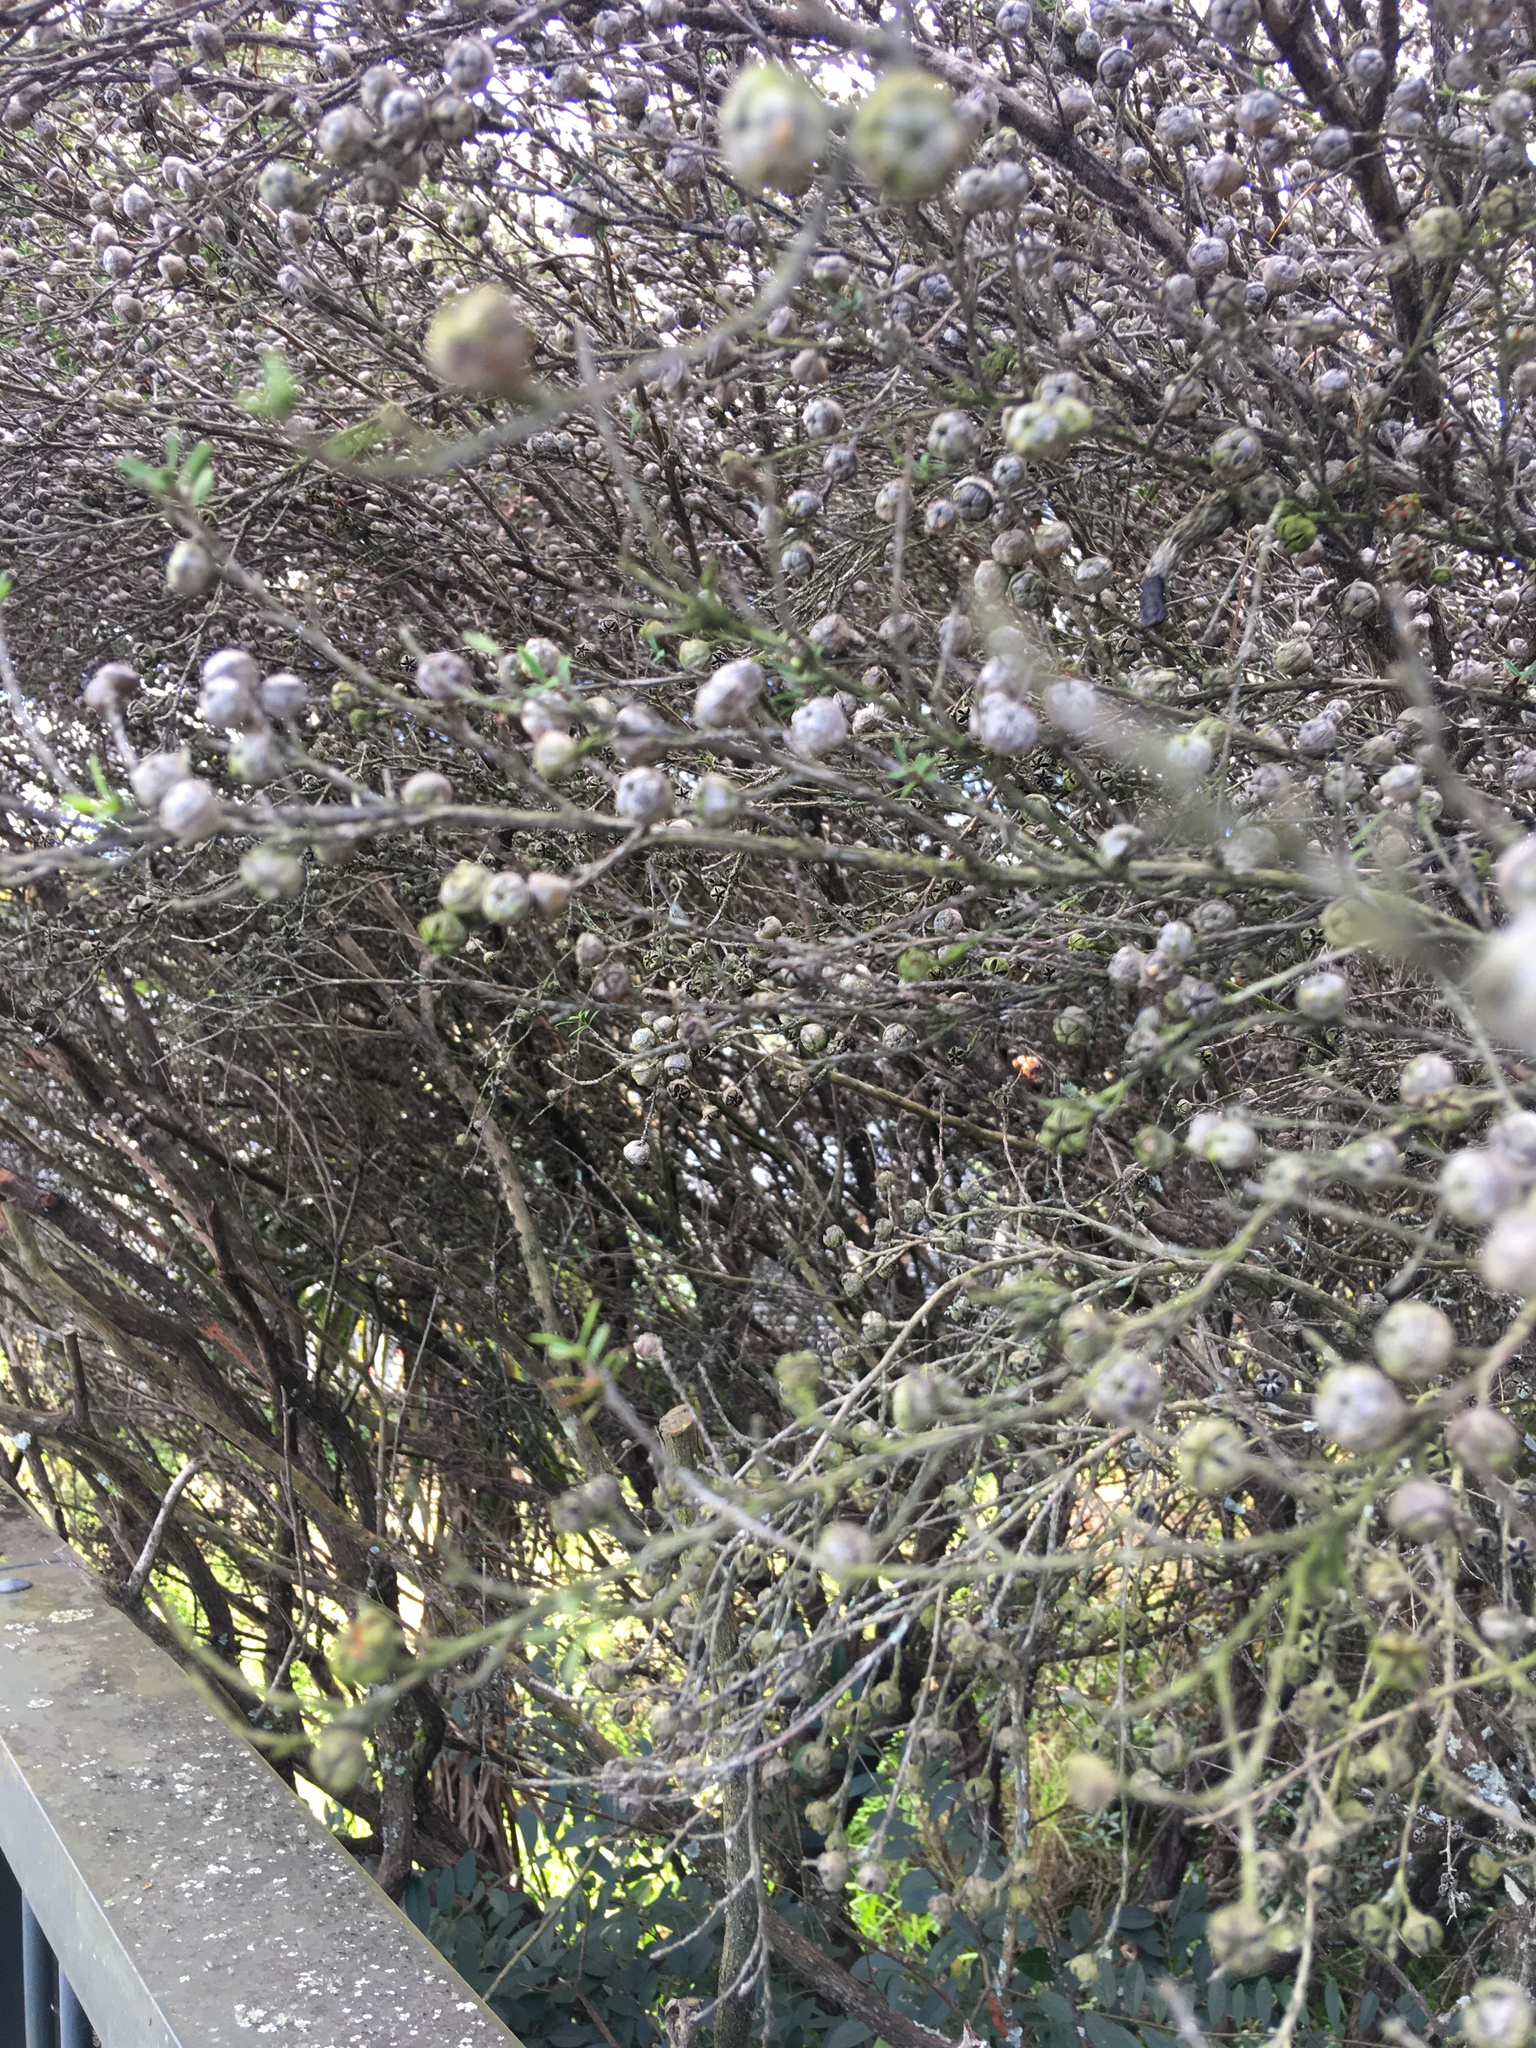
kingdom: Plantae
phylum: Tracheophyta
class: Magnoliopsida
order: Myrtales
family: Myrtaceae
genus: Leptospermum
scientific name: Leptospermum scoparium
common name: Broom tea-tree
